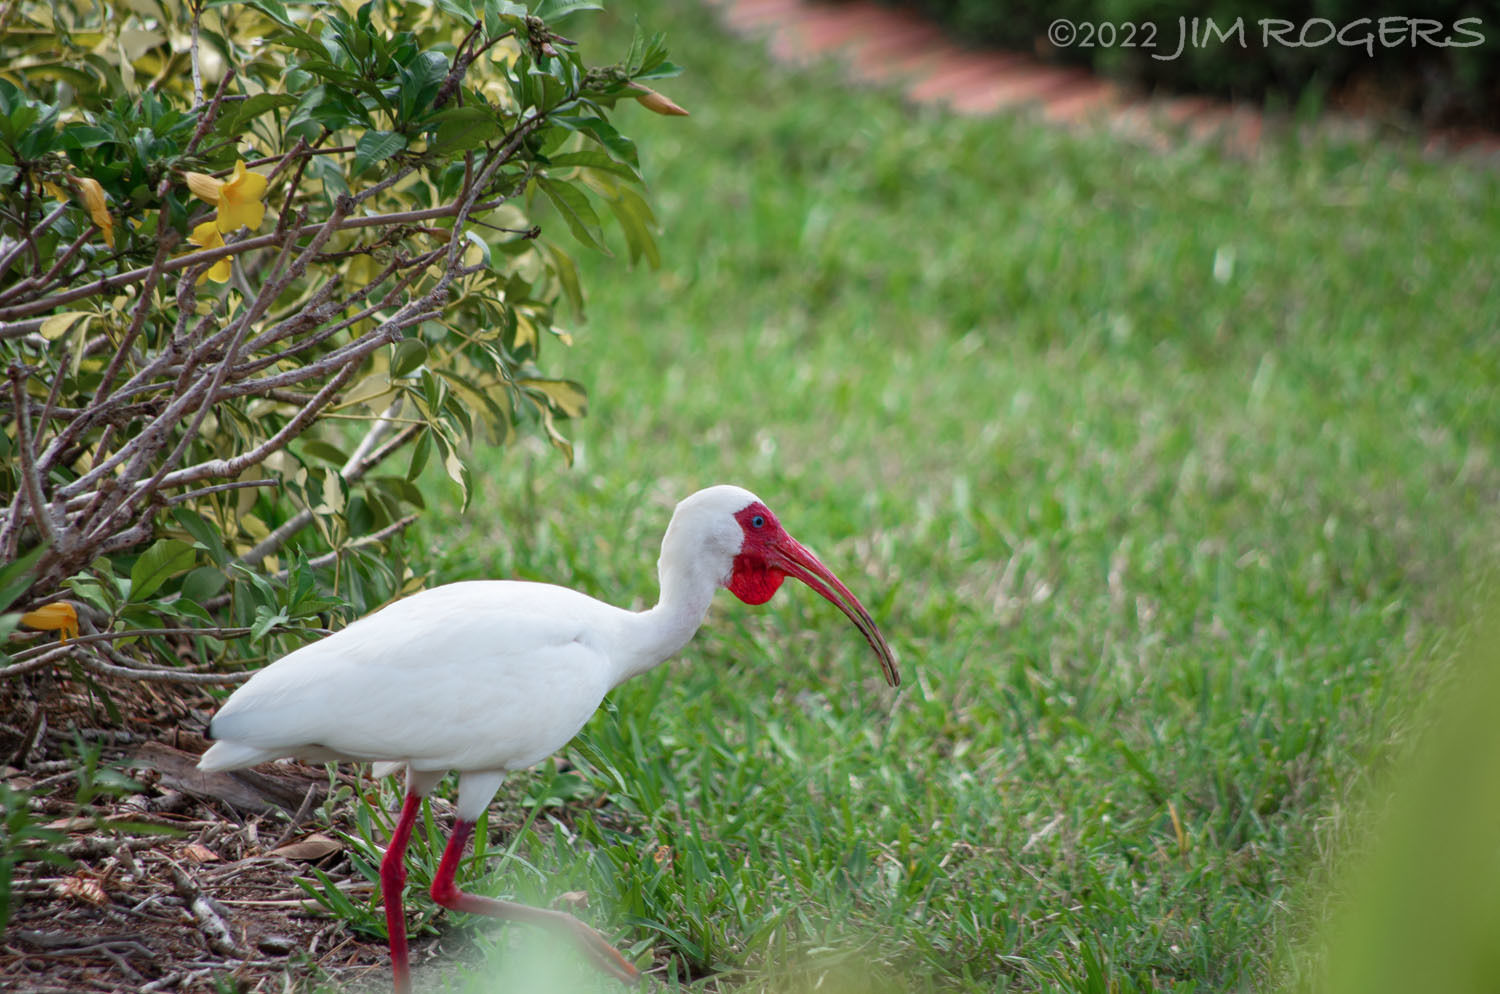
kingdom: Animalia
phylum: Chordata
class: Aves
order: Pelecaniformes
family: Threskiornithidae
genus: Eudocimus
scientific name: Eudocimus albus
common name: White ibis
